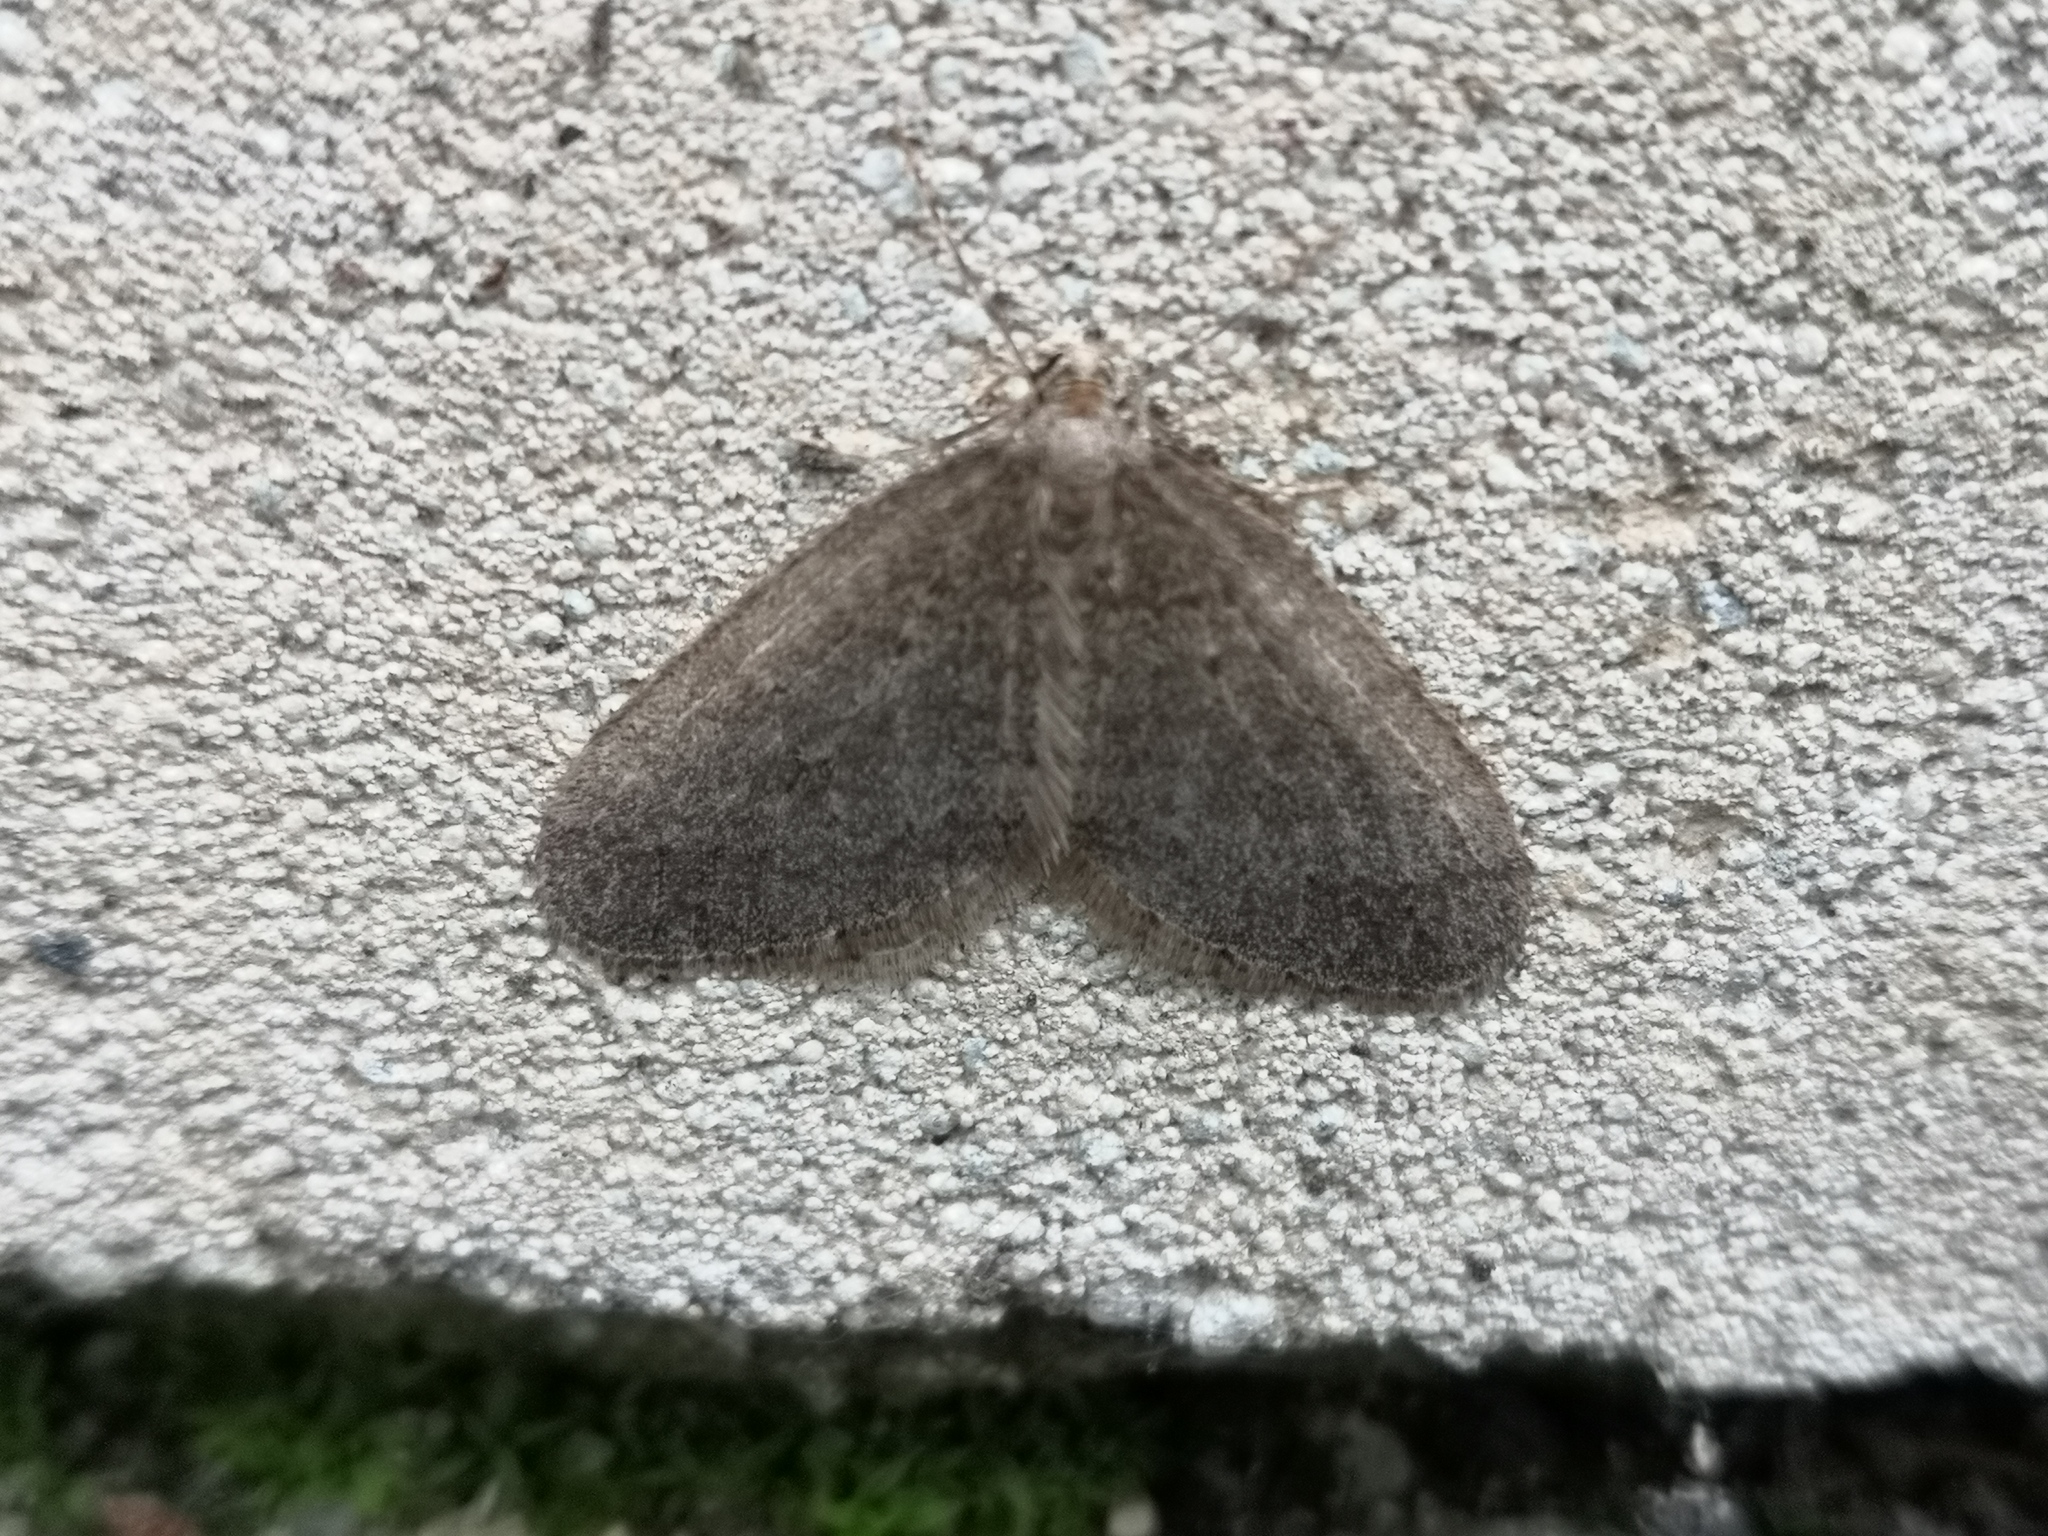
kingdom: Animalia
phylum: Arthropoda
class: Insecta
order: Lepidoptera
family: Geometridae
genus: Operophtera
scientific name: Operophtera brumata
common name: Winter moth
